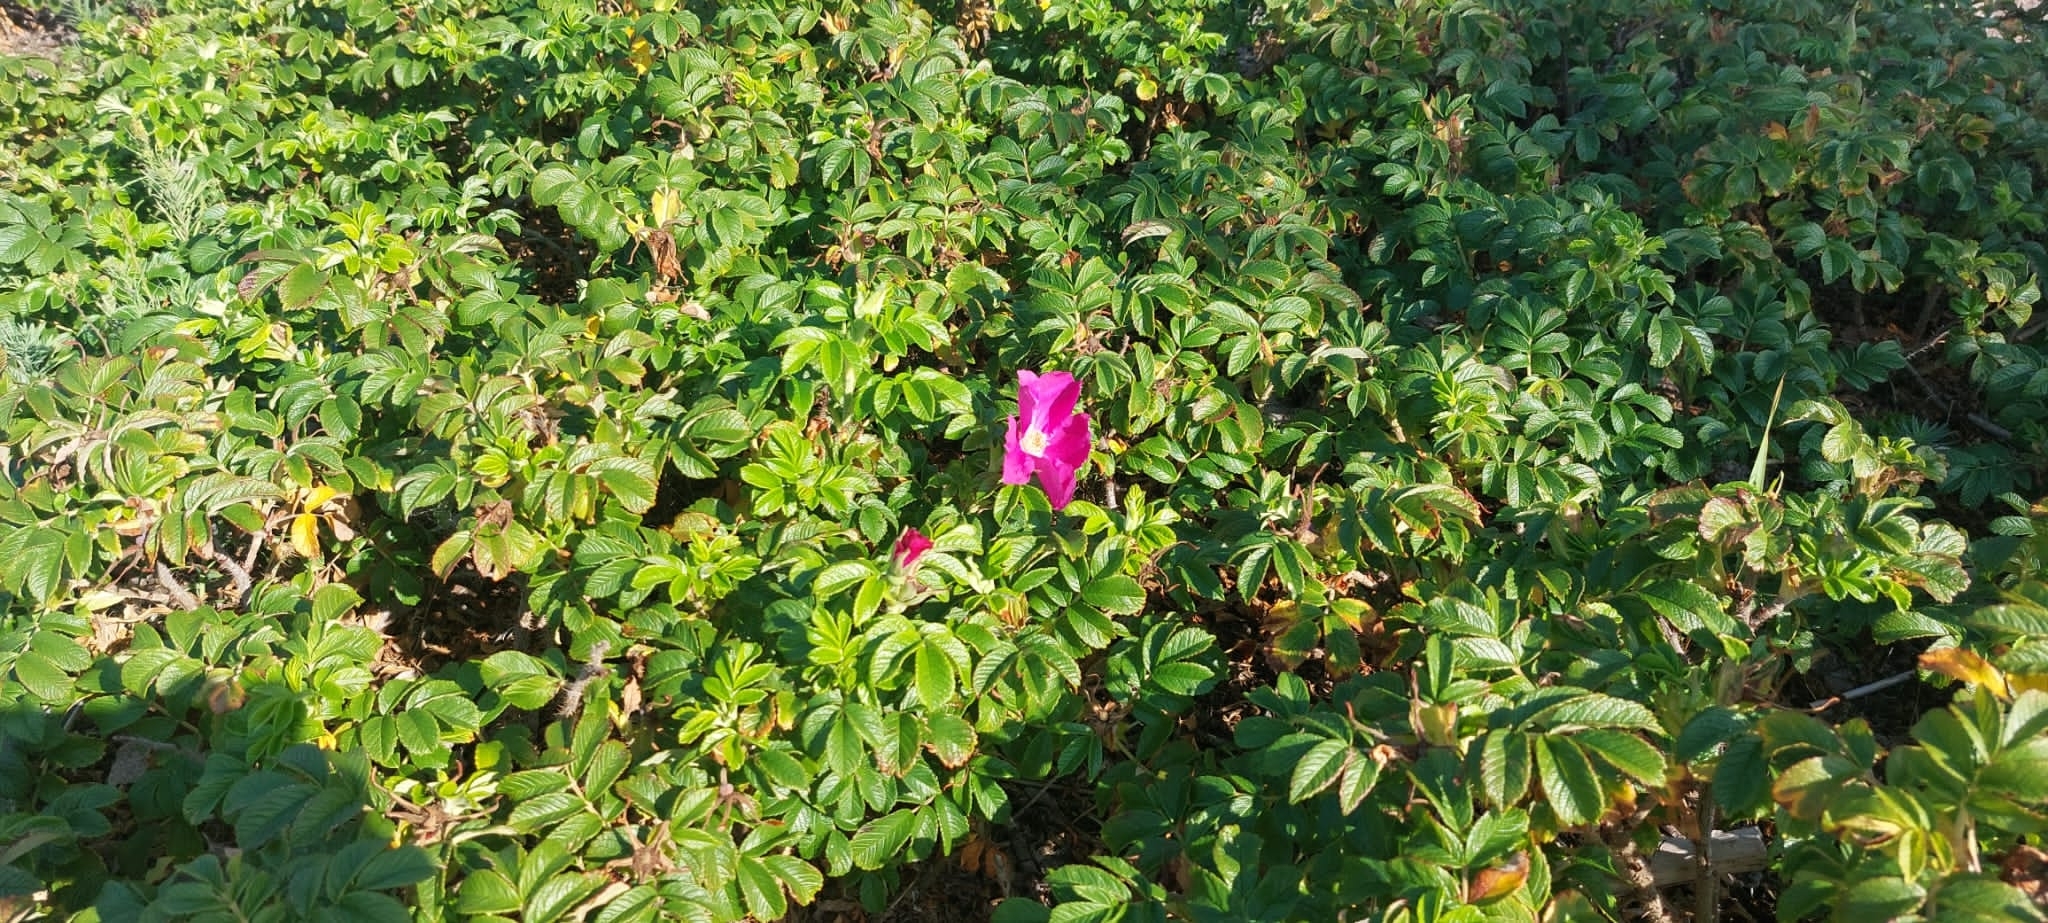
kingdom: Plantae
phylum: Tracheophyta
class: Magnoliopsida
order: Rosales
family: Rosaceae
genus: Rosa
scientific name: Rosa rugosa
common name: Japanese rose
